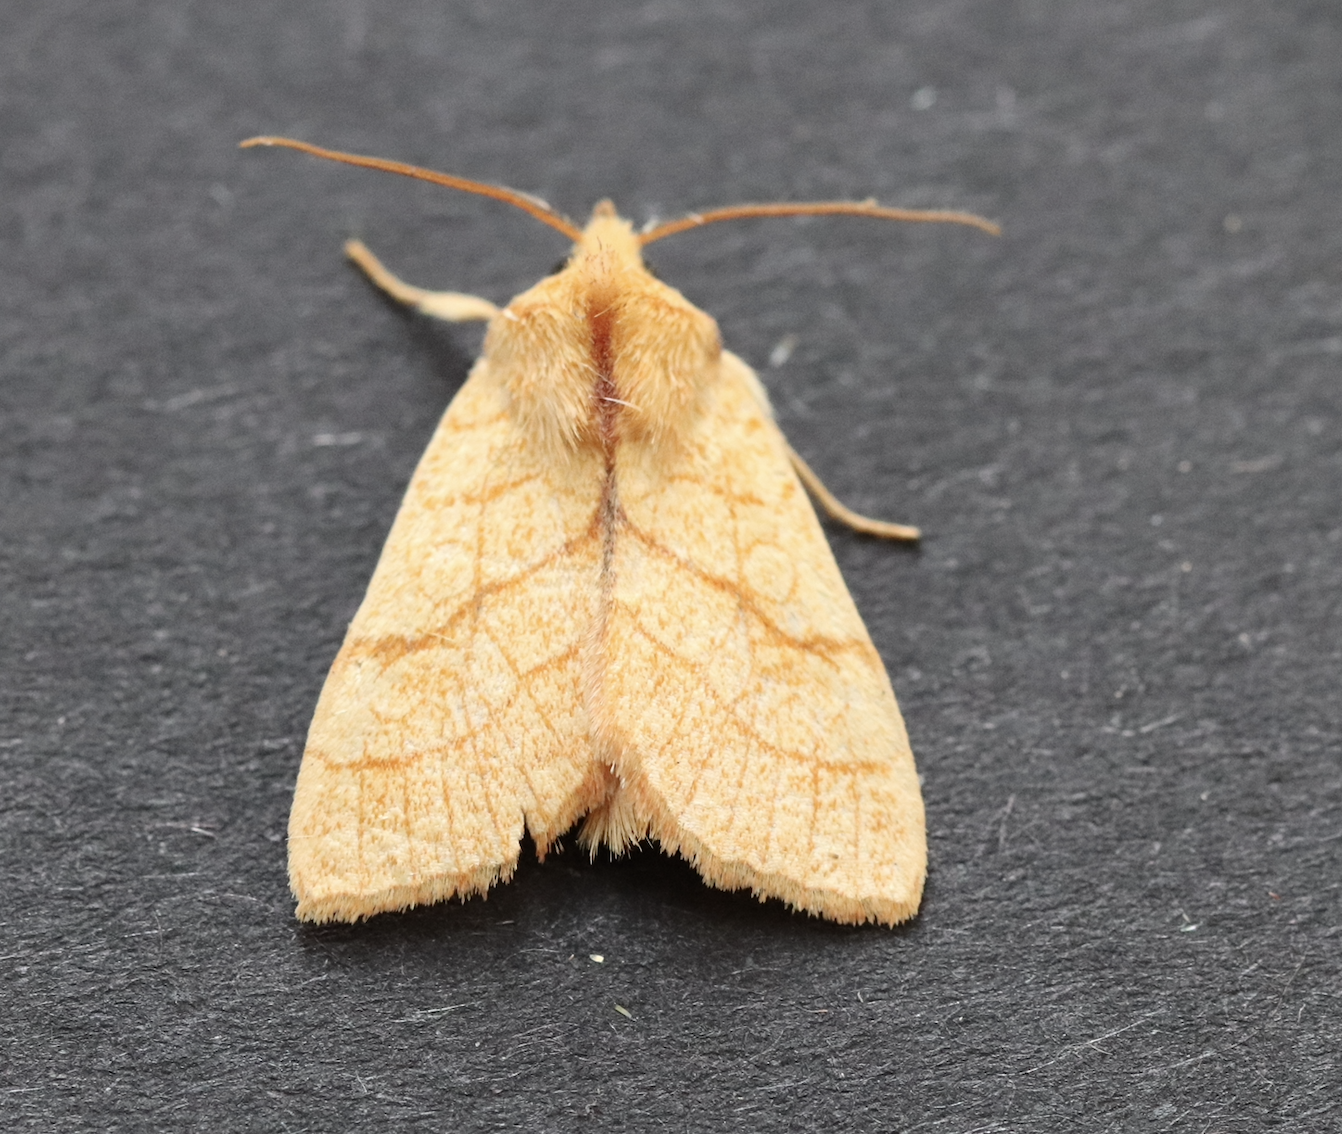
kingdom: Animalia
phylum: Arthropoda
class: Insecta
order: Lepidoptera
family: Noctuidae
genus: Tiliacea
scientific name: Tiliacea citrago
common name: Orange sallow
